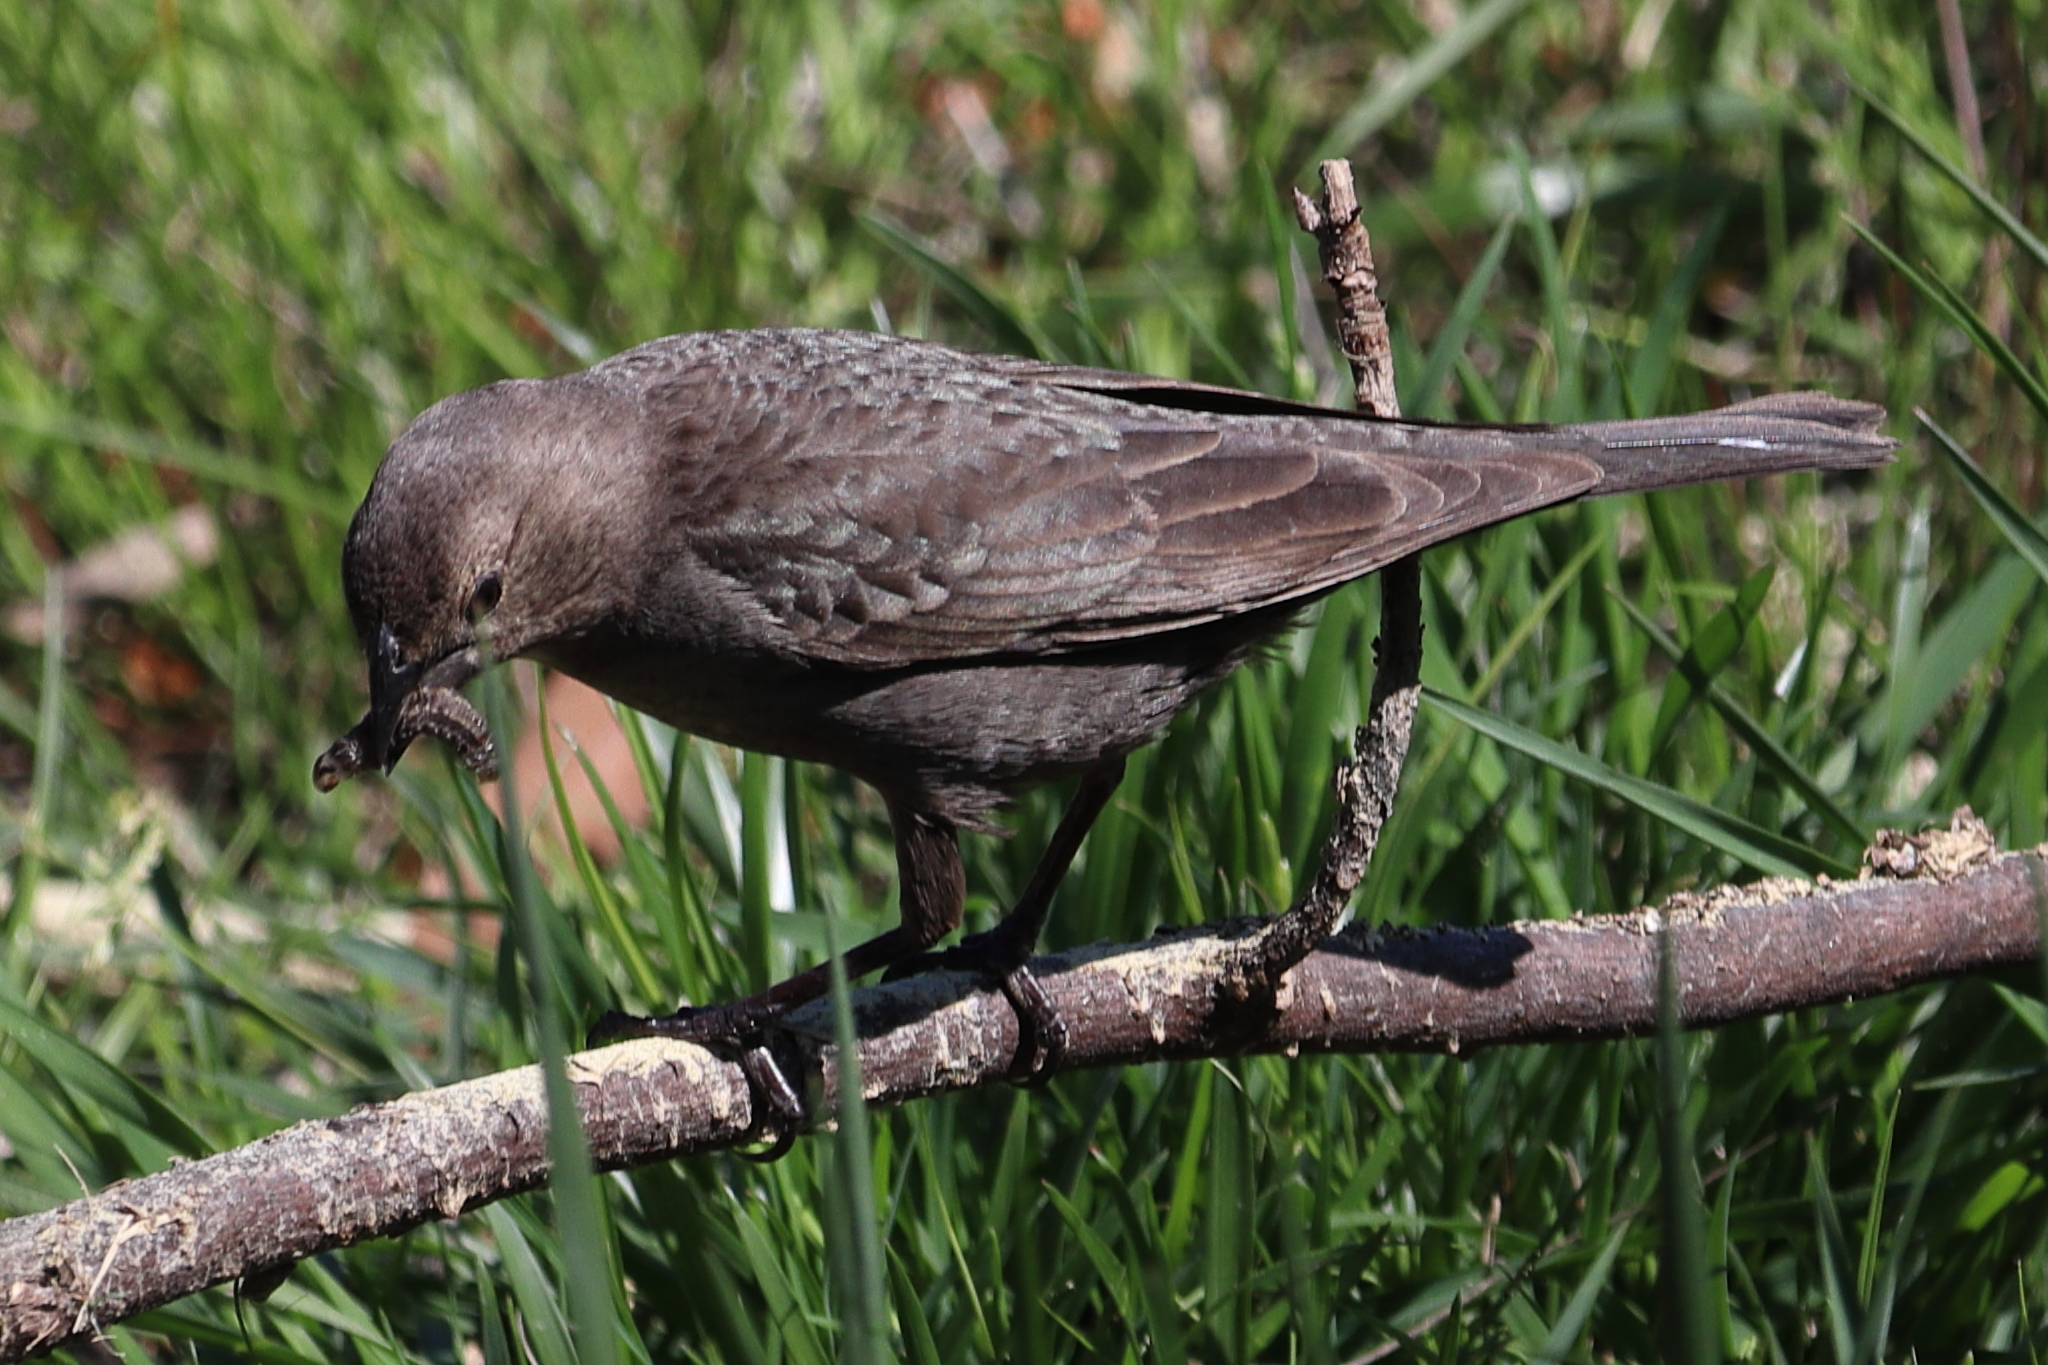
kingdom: Animalia
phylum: Chordata
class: Aves
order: Passeriformes
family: Icteridae
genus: Molothrus
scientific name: Molothrus ater
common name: Brown-headed cowbird
